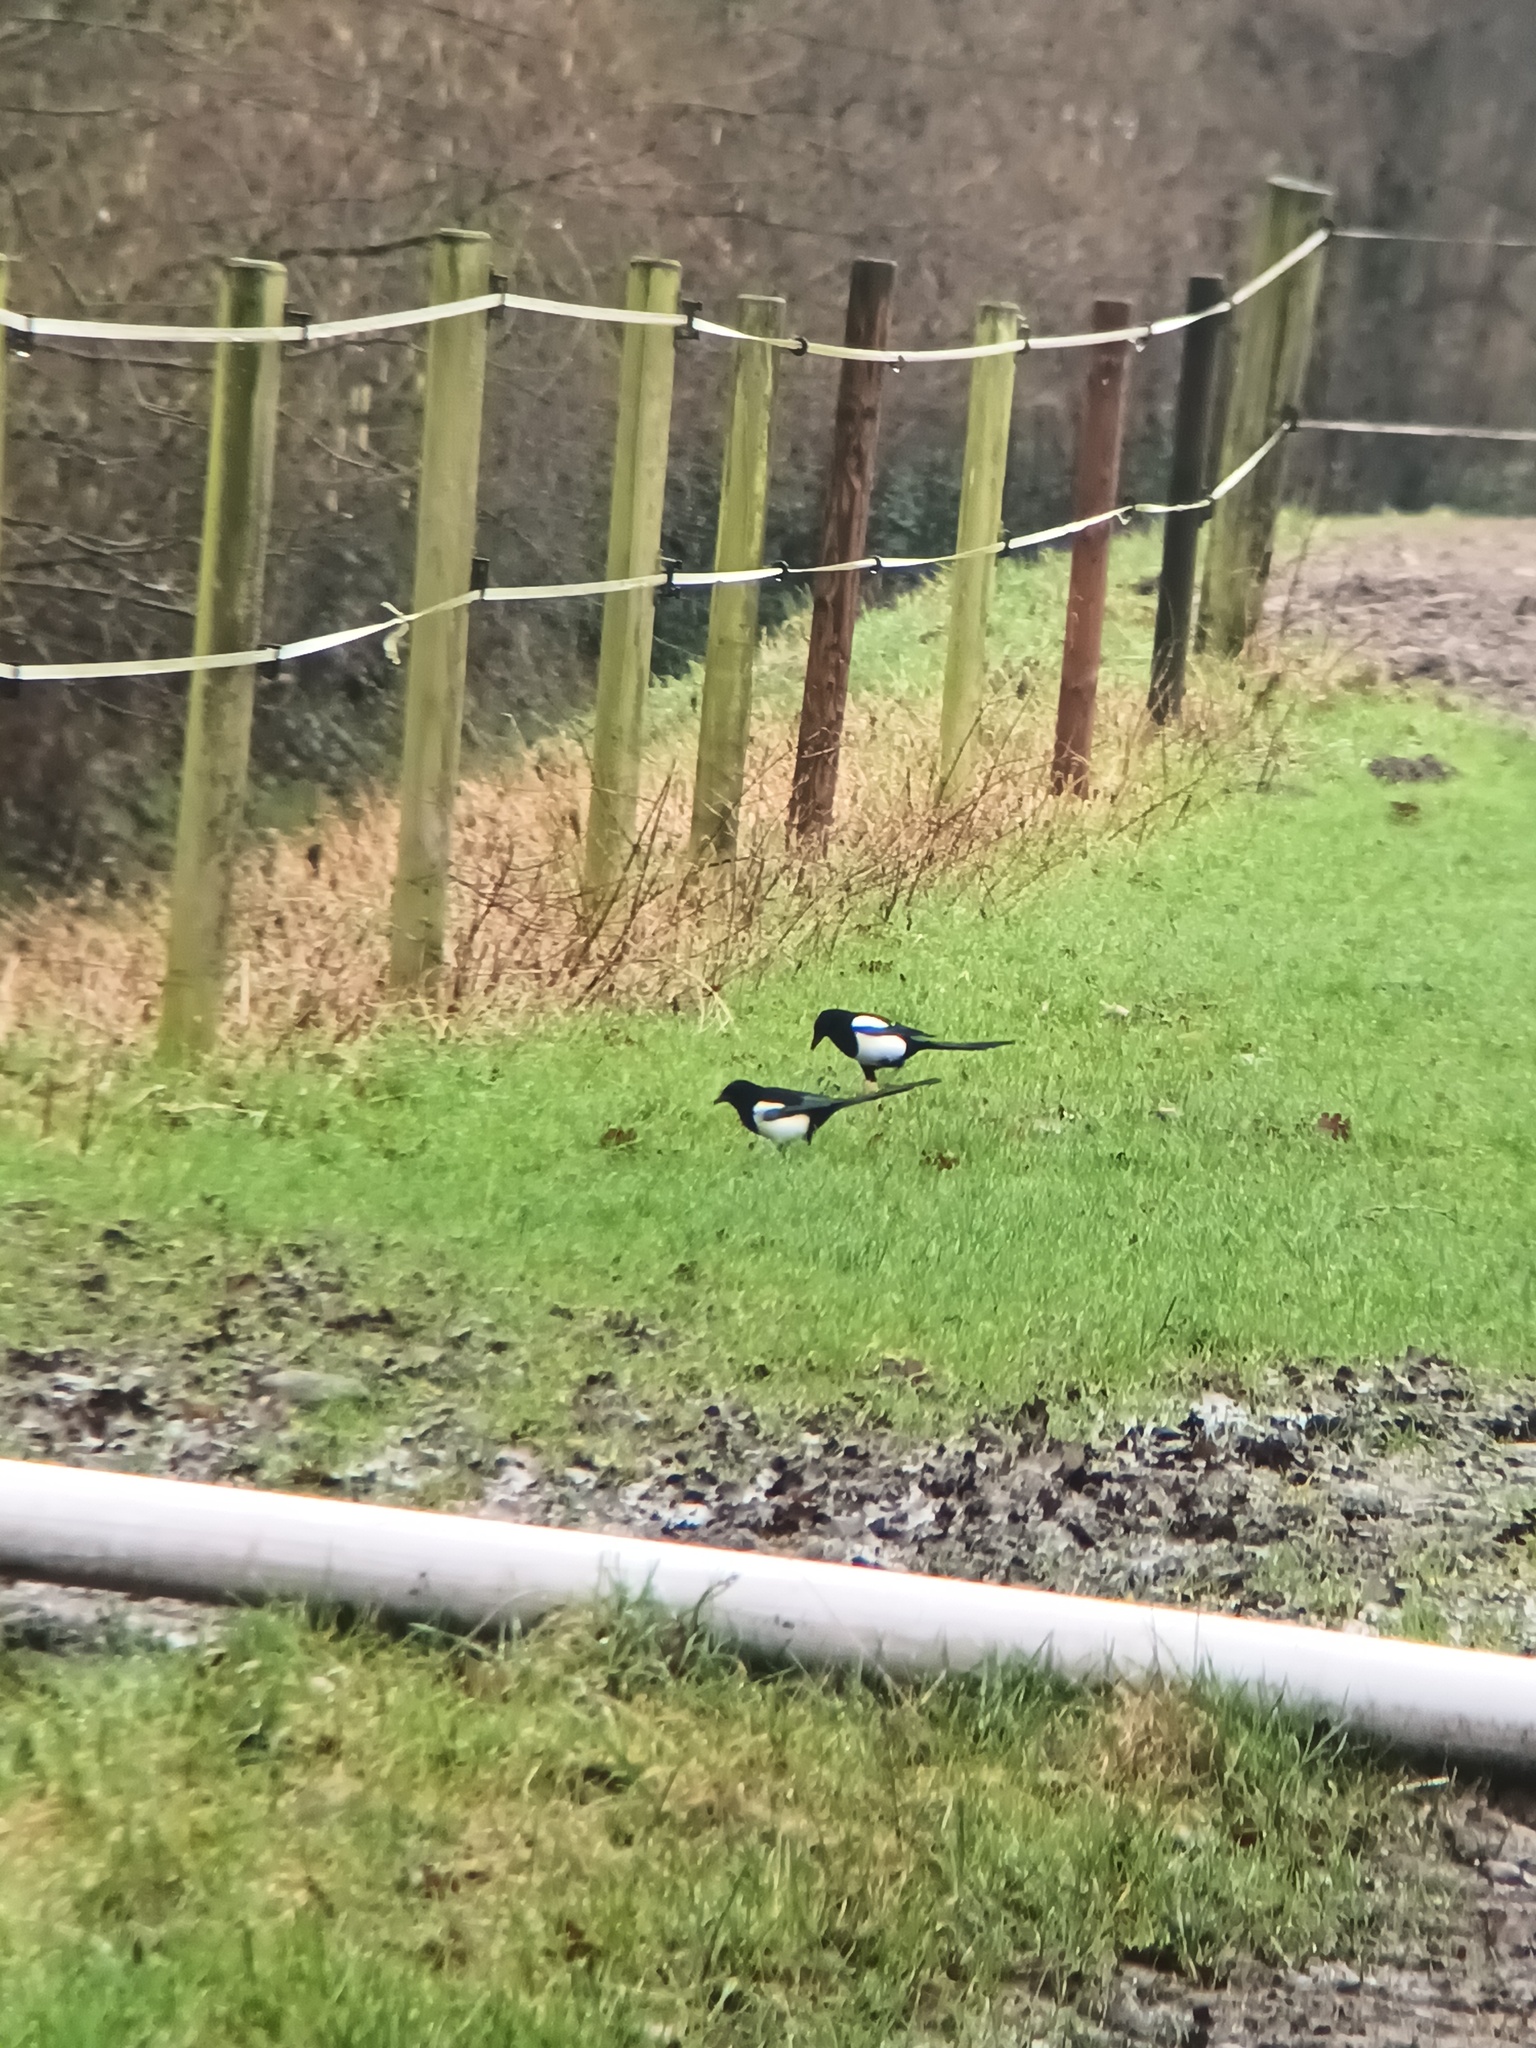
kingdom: Animalia
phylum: Chordata
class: Aves
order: Passeriformes
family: Corvidae
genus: Pica
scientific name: Pica pica
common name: Eurasian magpie
